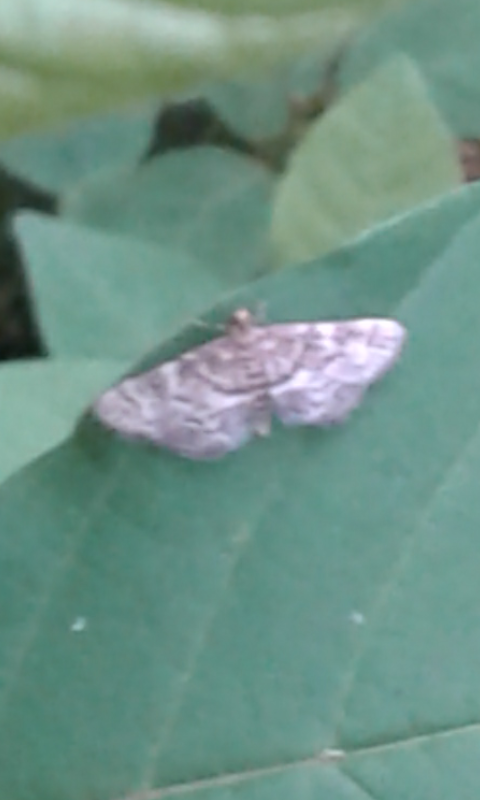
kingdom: Animalia
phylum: Arthropoda
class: Insecta
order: Lepidoptera
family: Crambidae
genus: Anageshna
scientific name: Anageshna primordialis
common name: Yellow-spotted webworm moth
